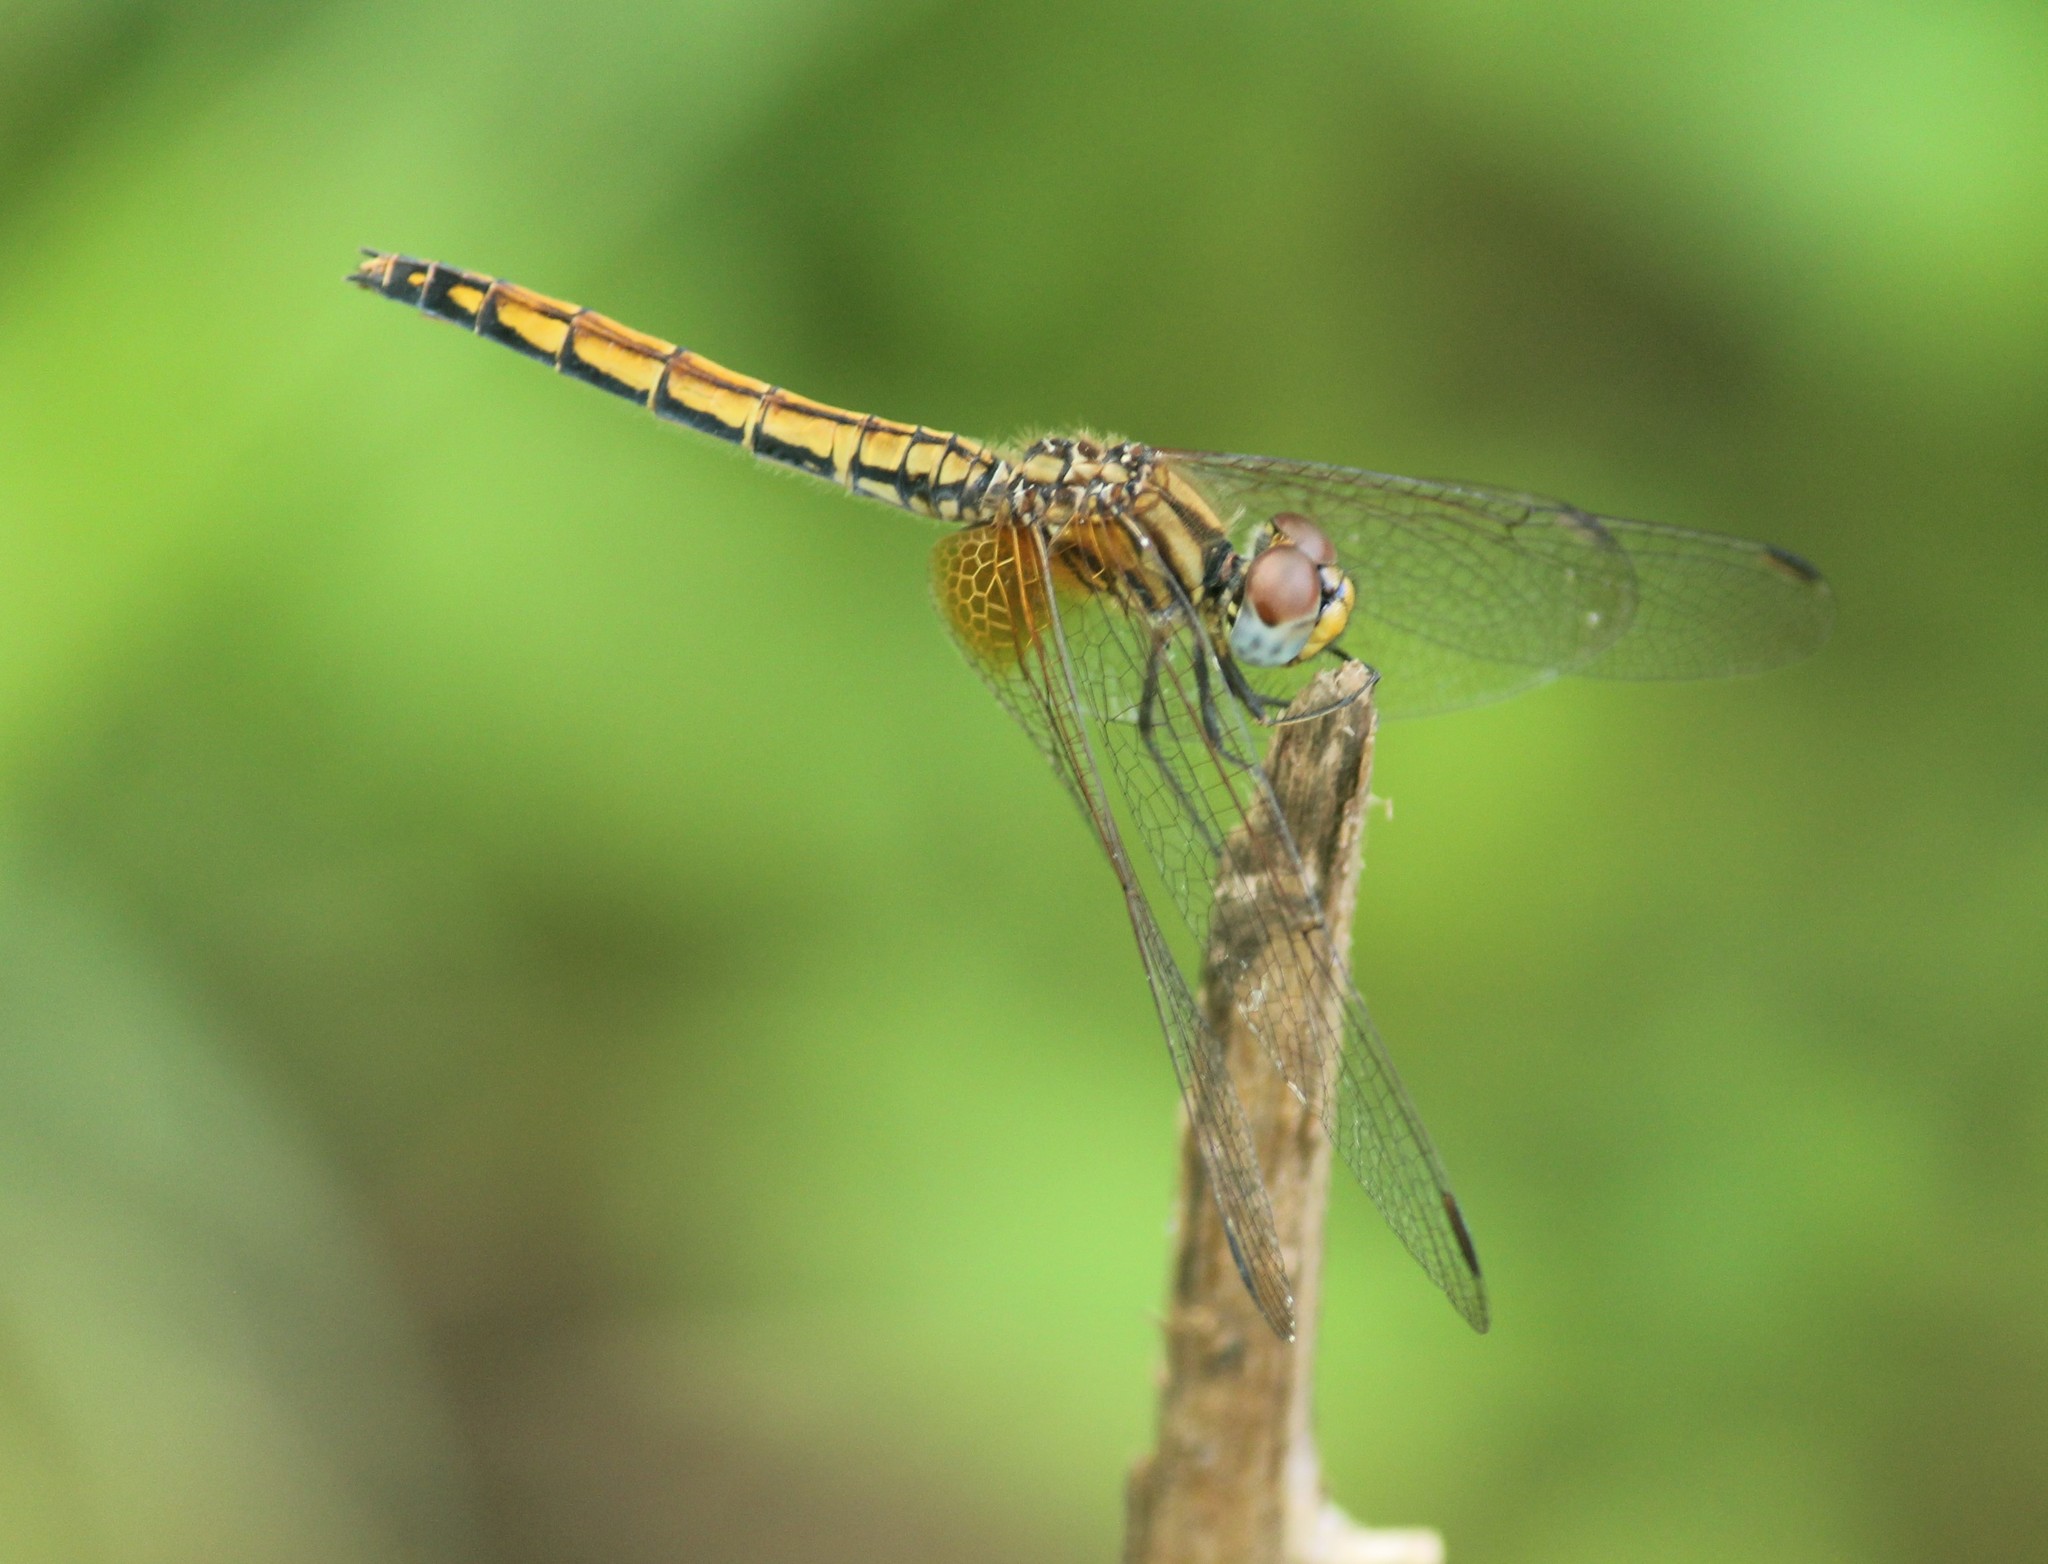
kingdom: Animalia
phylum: Arthropoda
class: Insecta
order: Odonata
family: Libellulidae
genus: Trithemis
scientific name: Trithemis aurora
